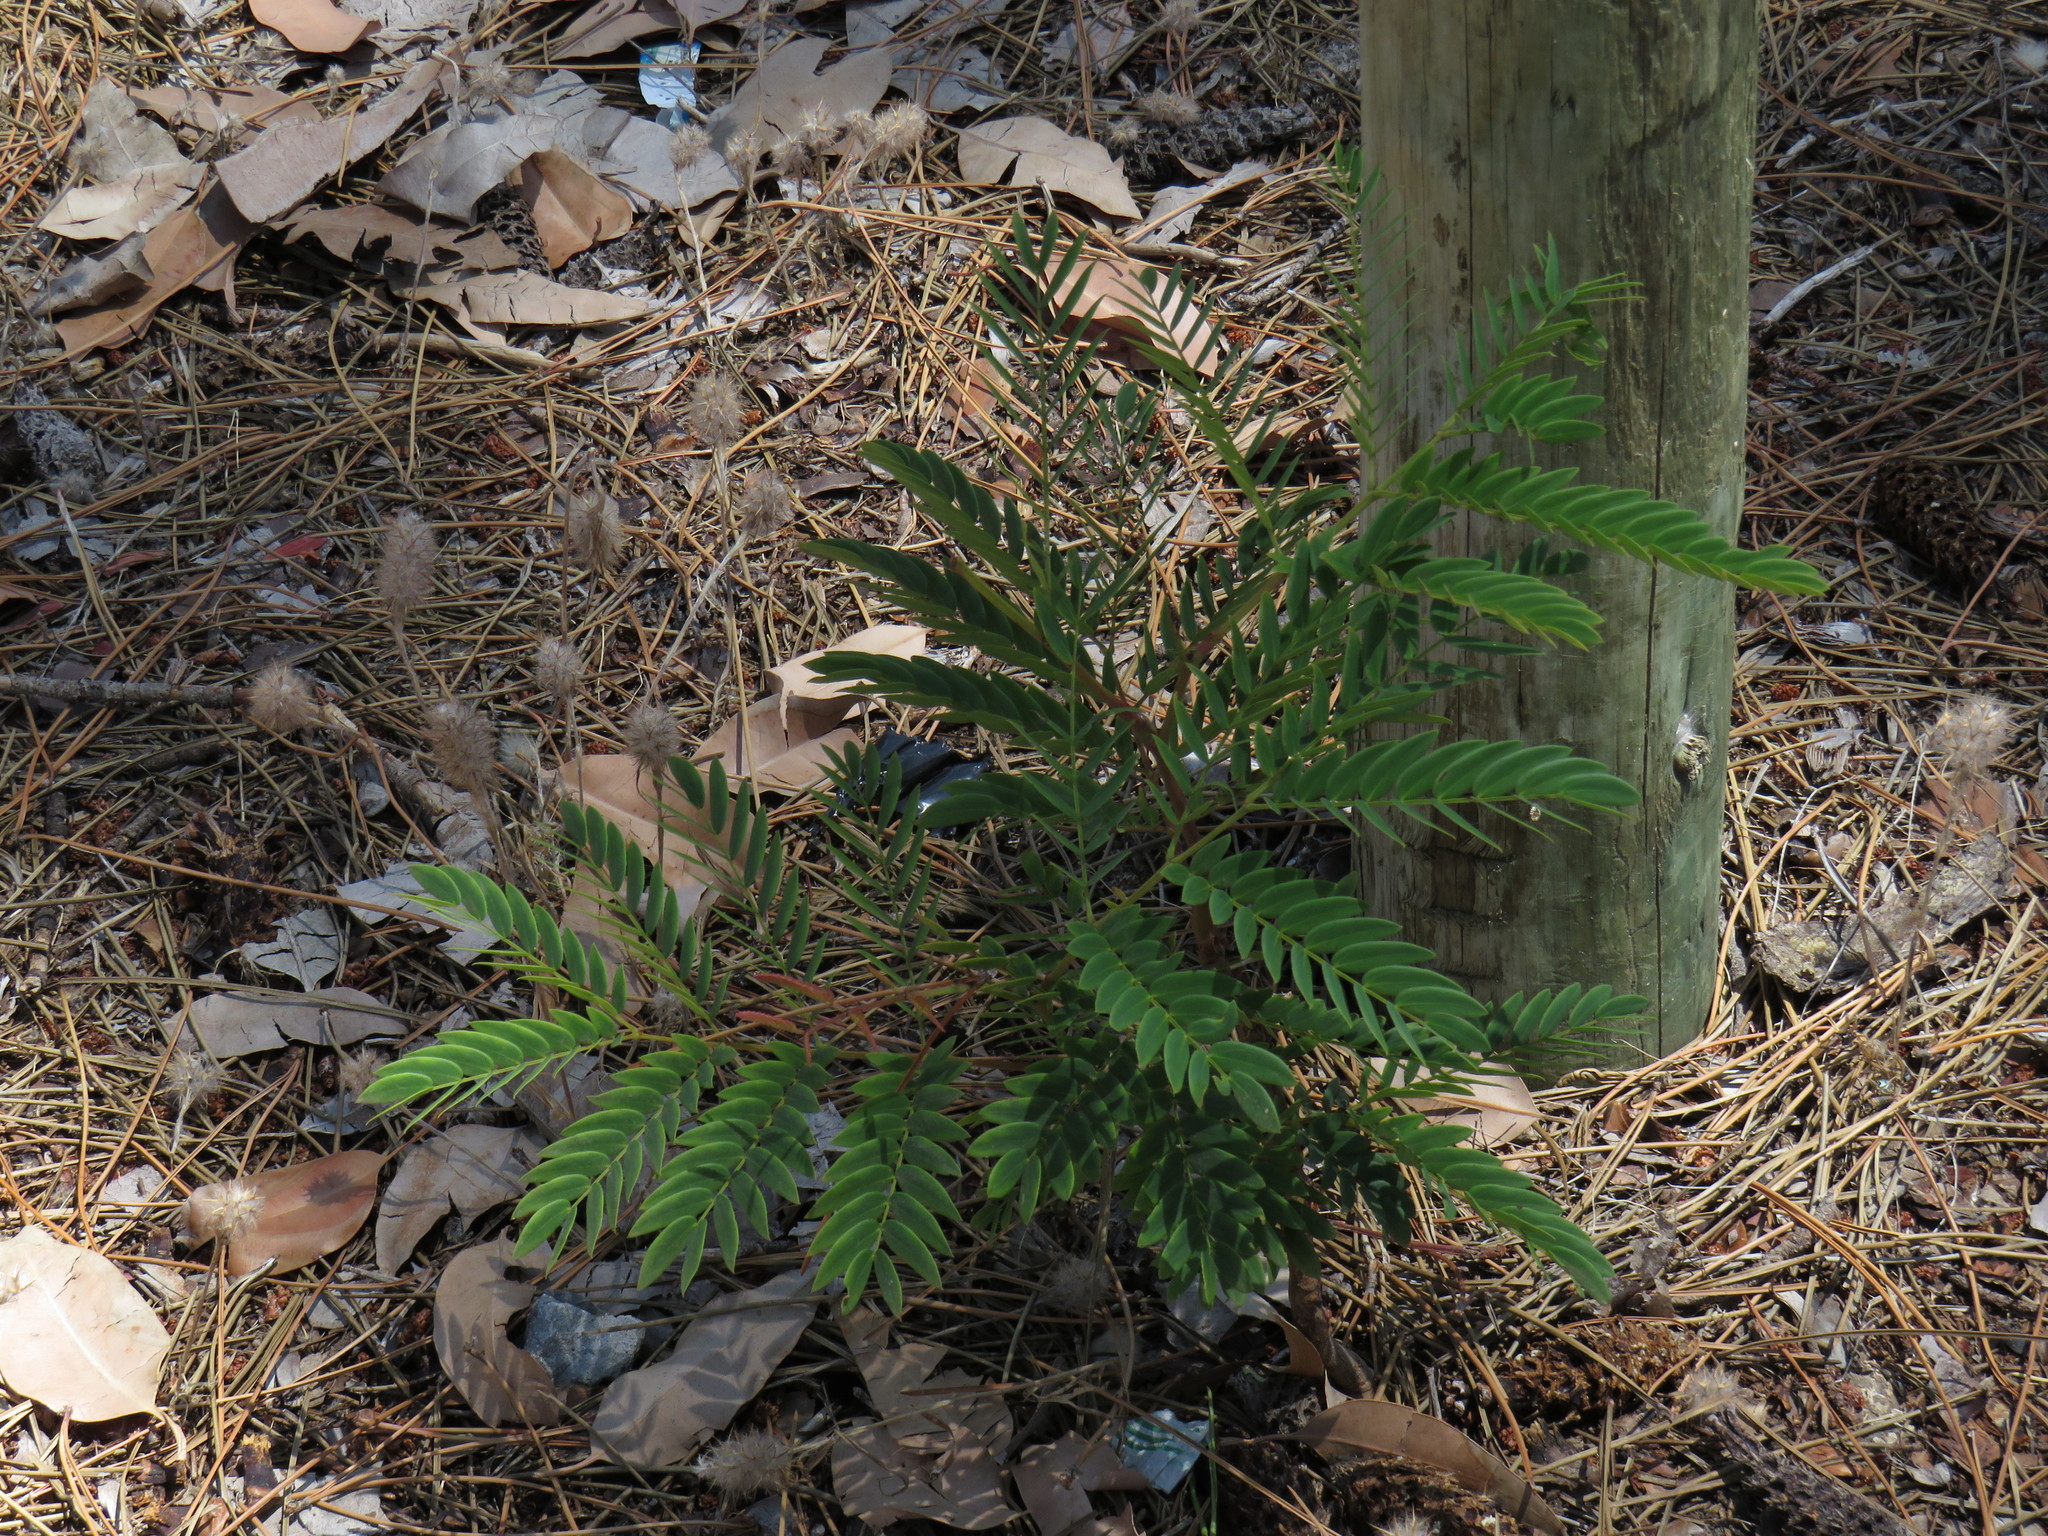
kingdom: Plantae
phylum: Tracheophyta
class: Magnoliopsida
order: Fabales
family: Fabaceae
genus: Acacia
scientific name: Acacia elata
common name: Cedar wattle
